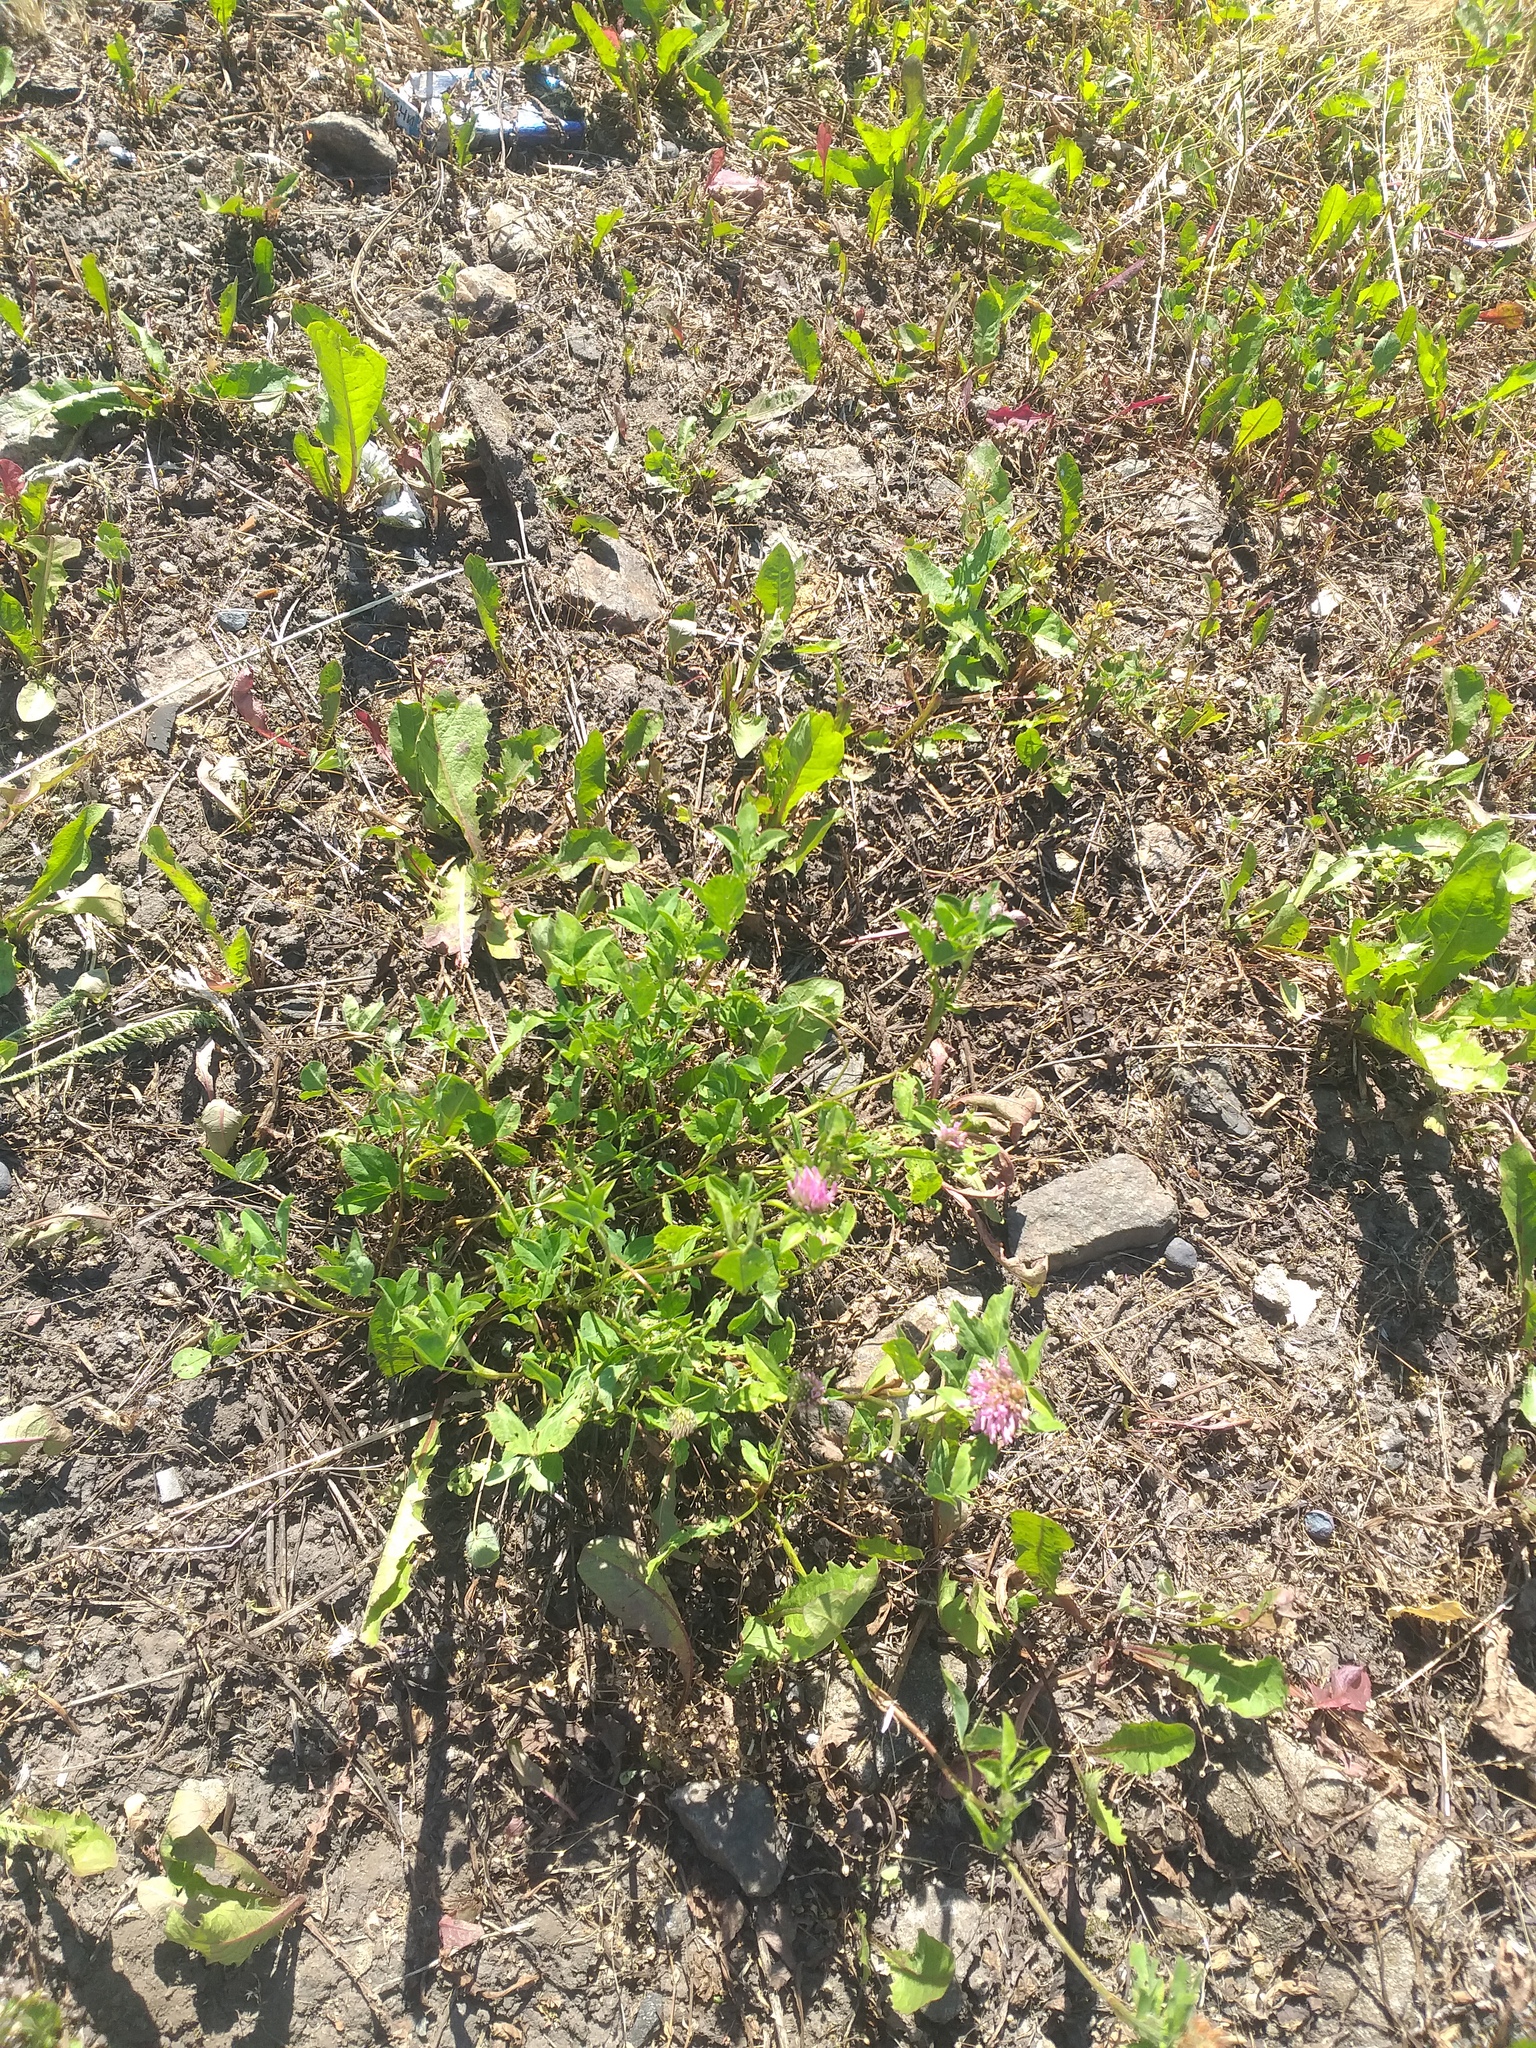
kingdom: Plantae
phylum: Tracheophyta
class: Magnoliopsida
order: Fabales
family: Fabaceae
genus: Trifolium
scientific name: Trifolium pratense
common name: Red clover
